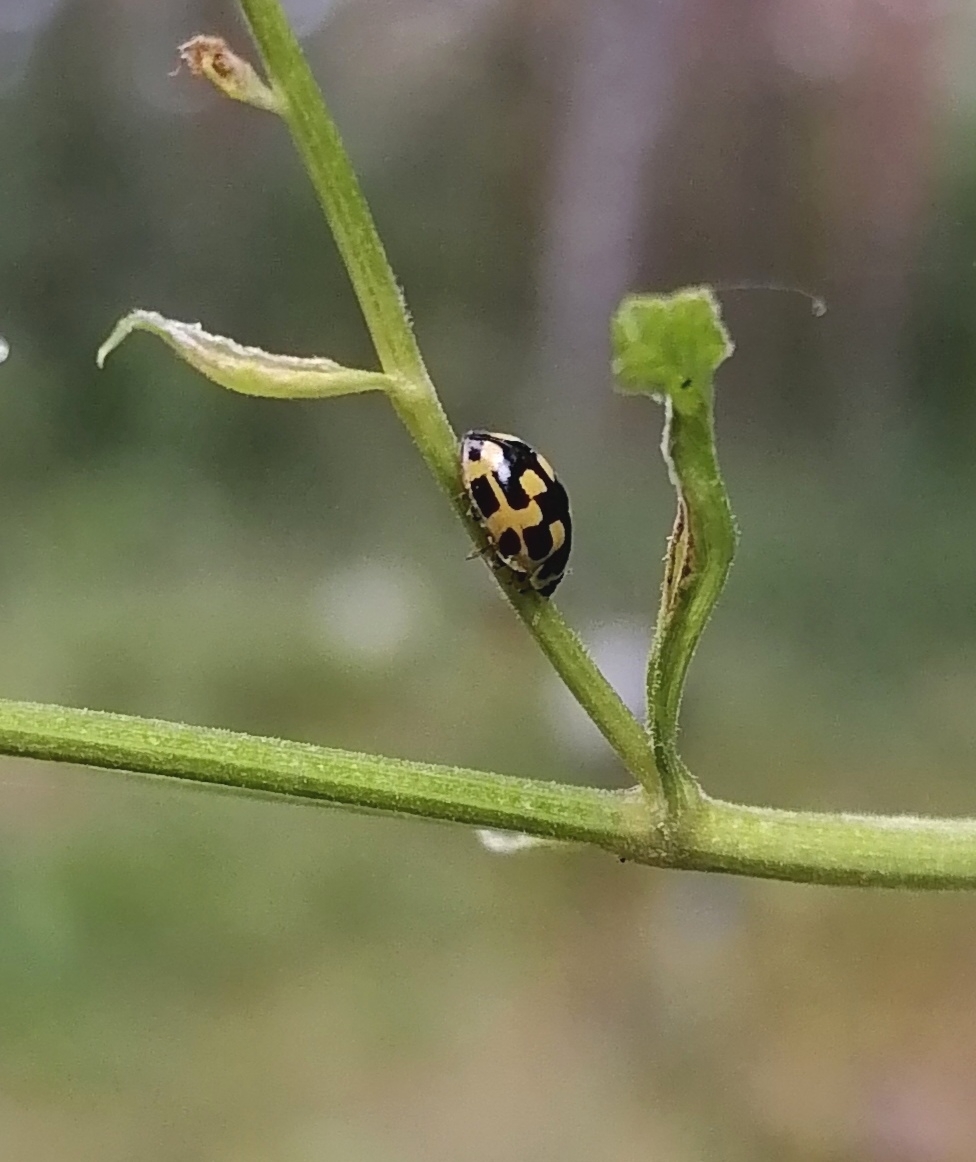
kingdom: Animalia
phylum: Arthropoda
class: Insecta
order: Coleoptera
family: Coccinellidae
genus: Propylaea
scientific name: Propylaea quatuordecimpunctata
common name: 14-spotted ladybird beetle
